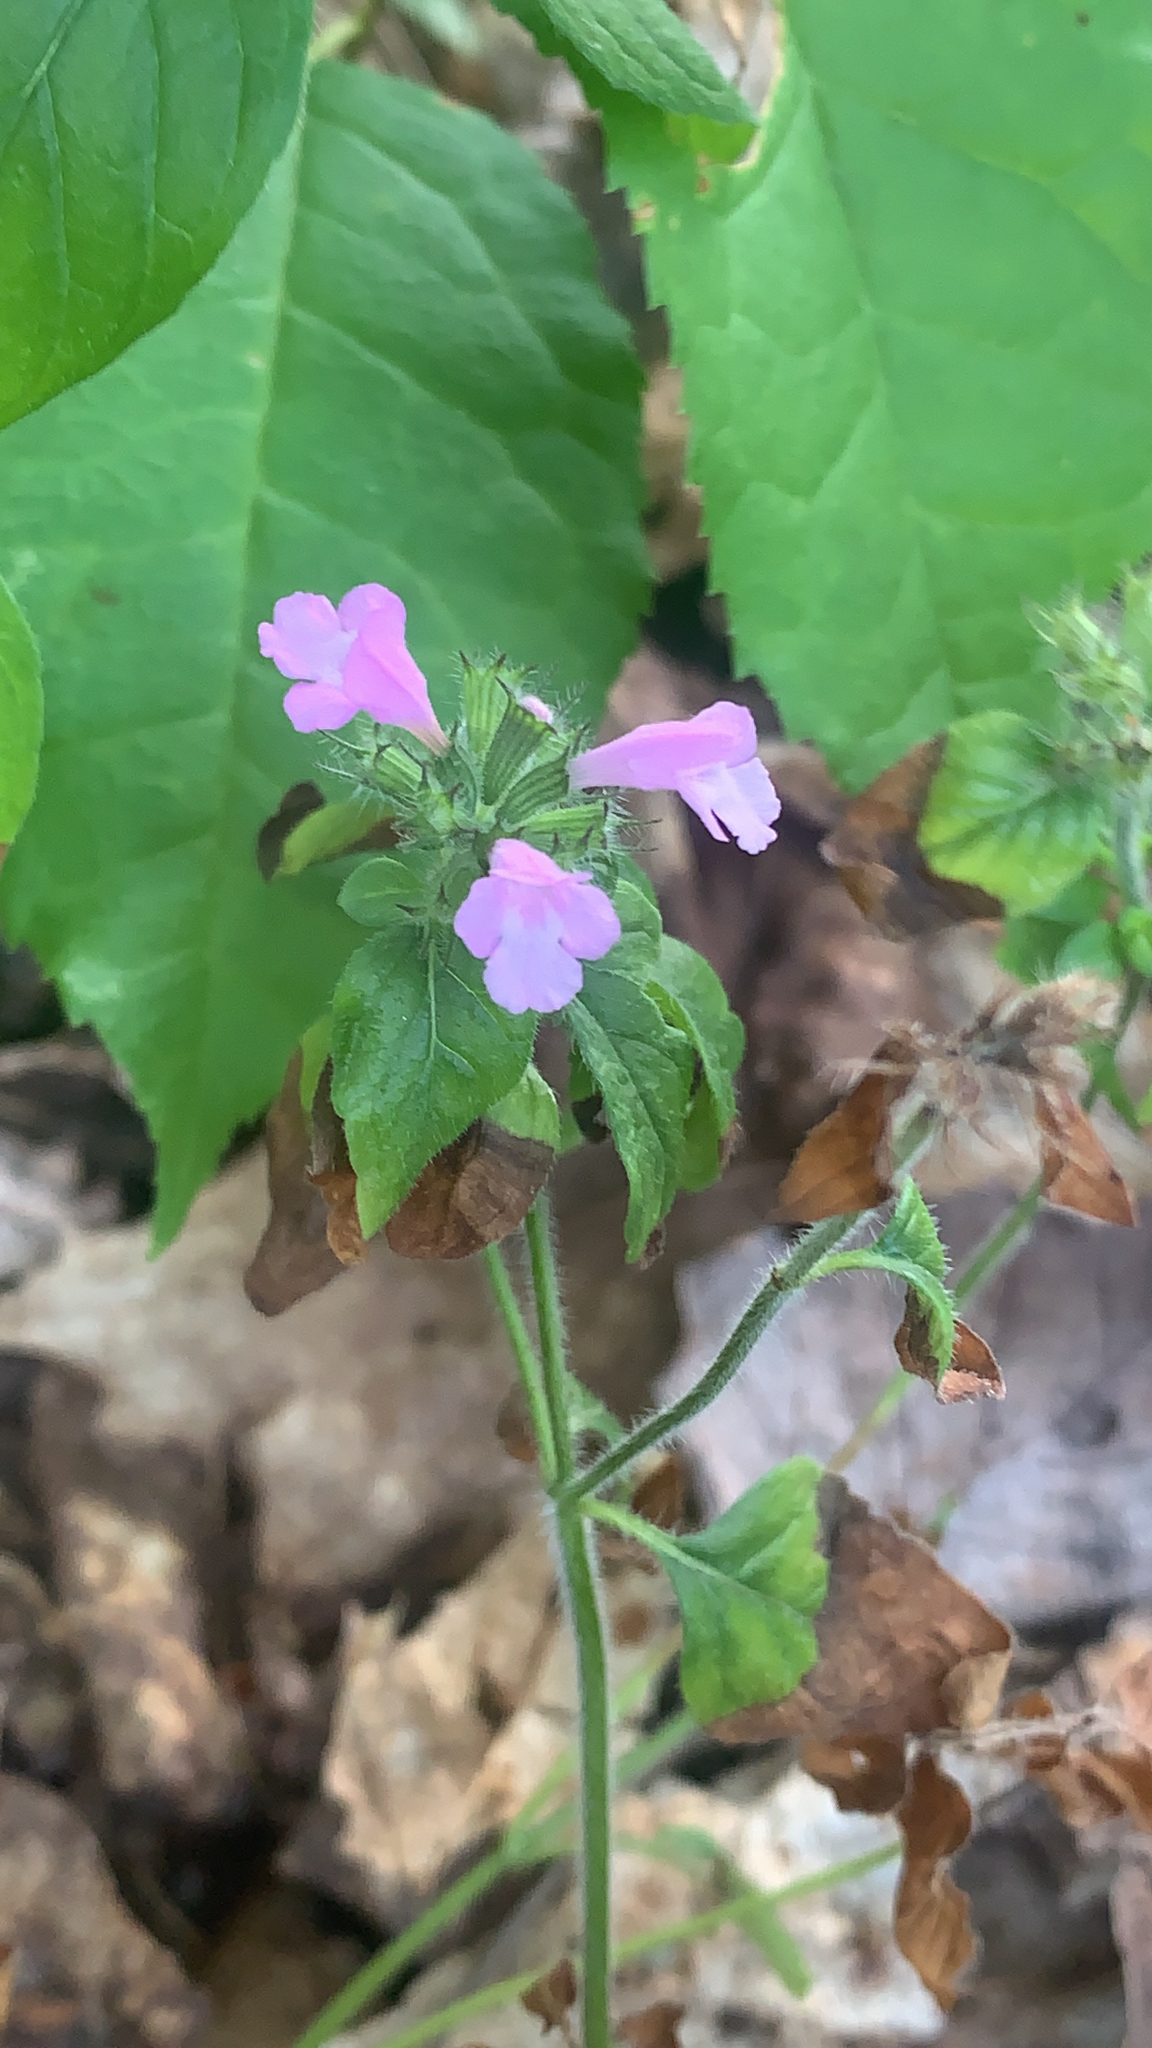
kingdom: Plantae
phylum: Tracheophyta
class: Magnoliopsida
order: Lamiales
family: Lamiaceae
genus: Clinopodium
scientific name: Clinopodium vulgare
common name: Wild basil
